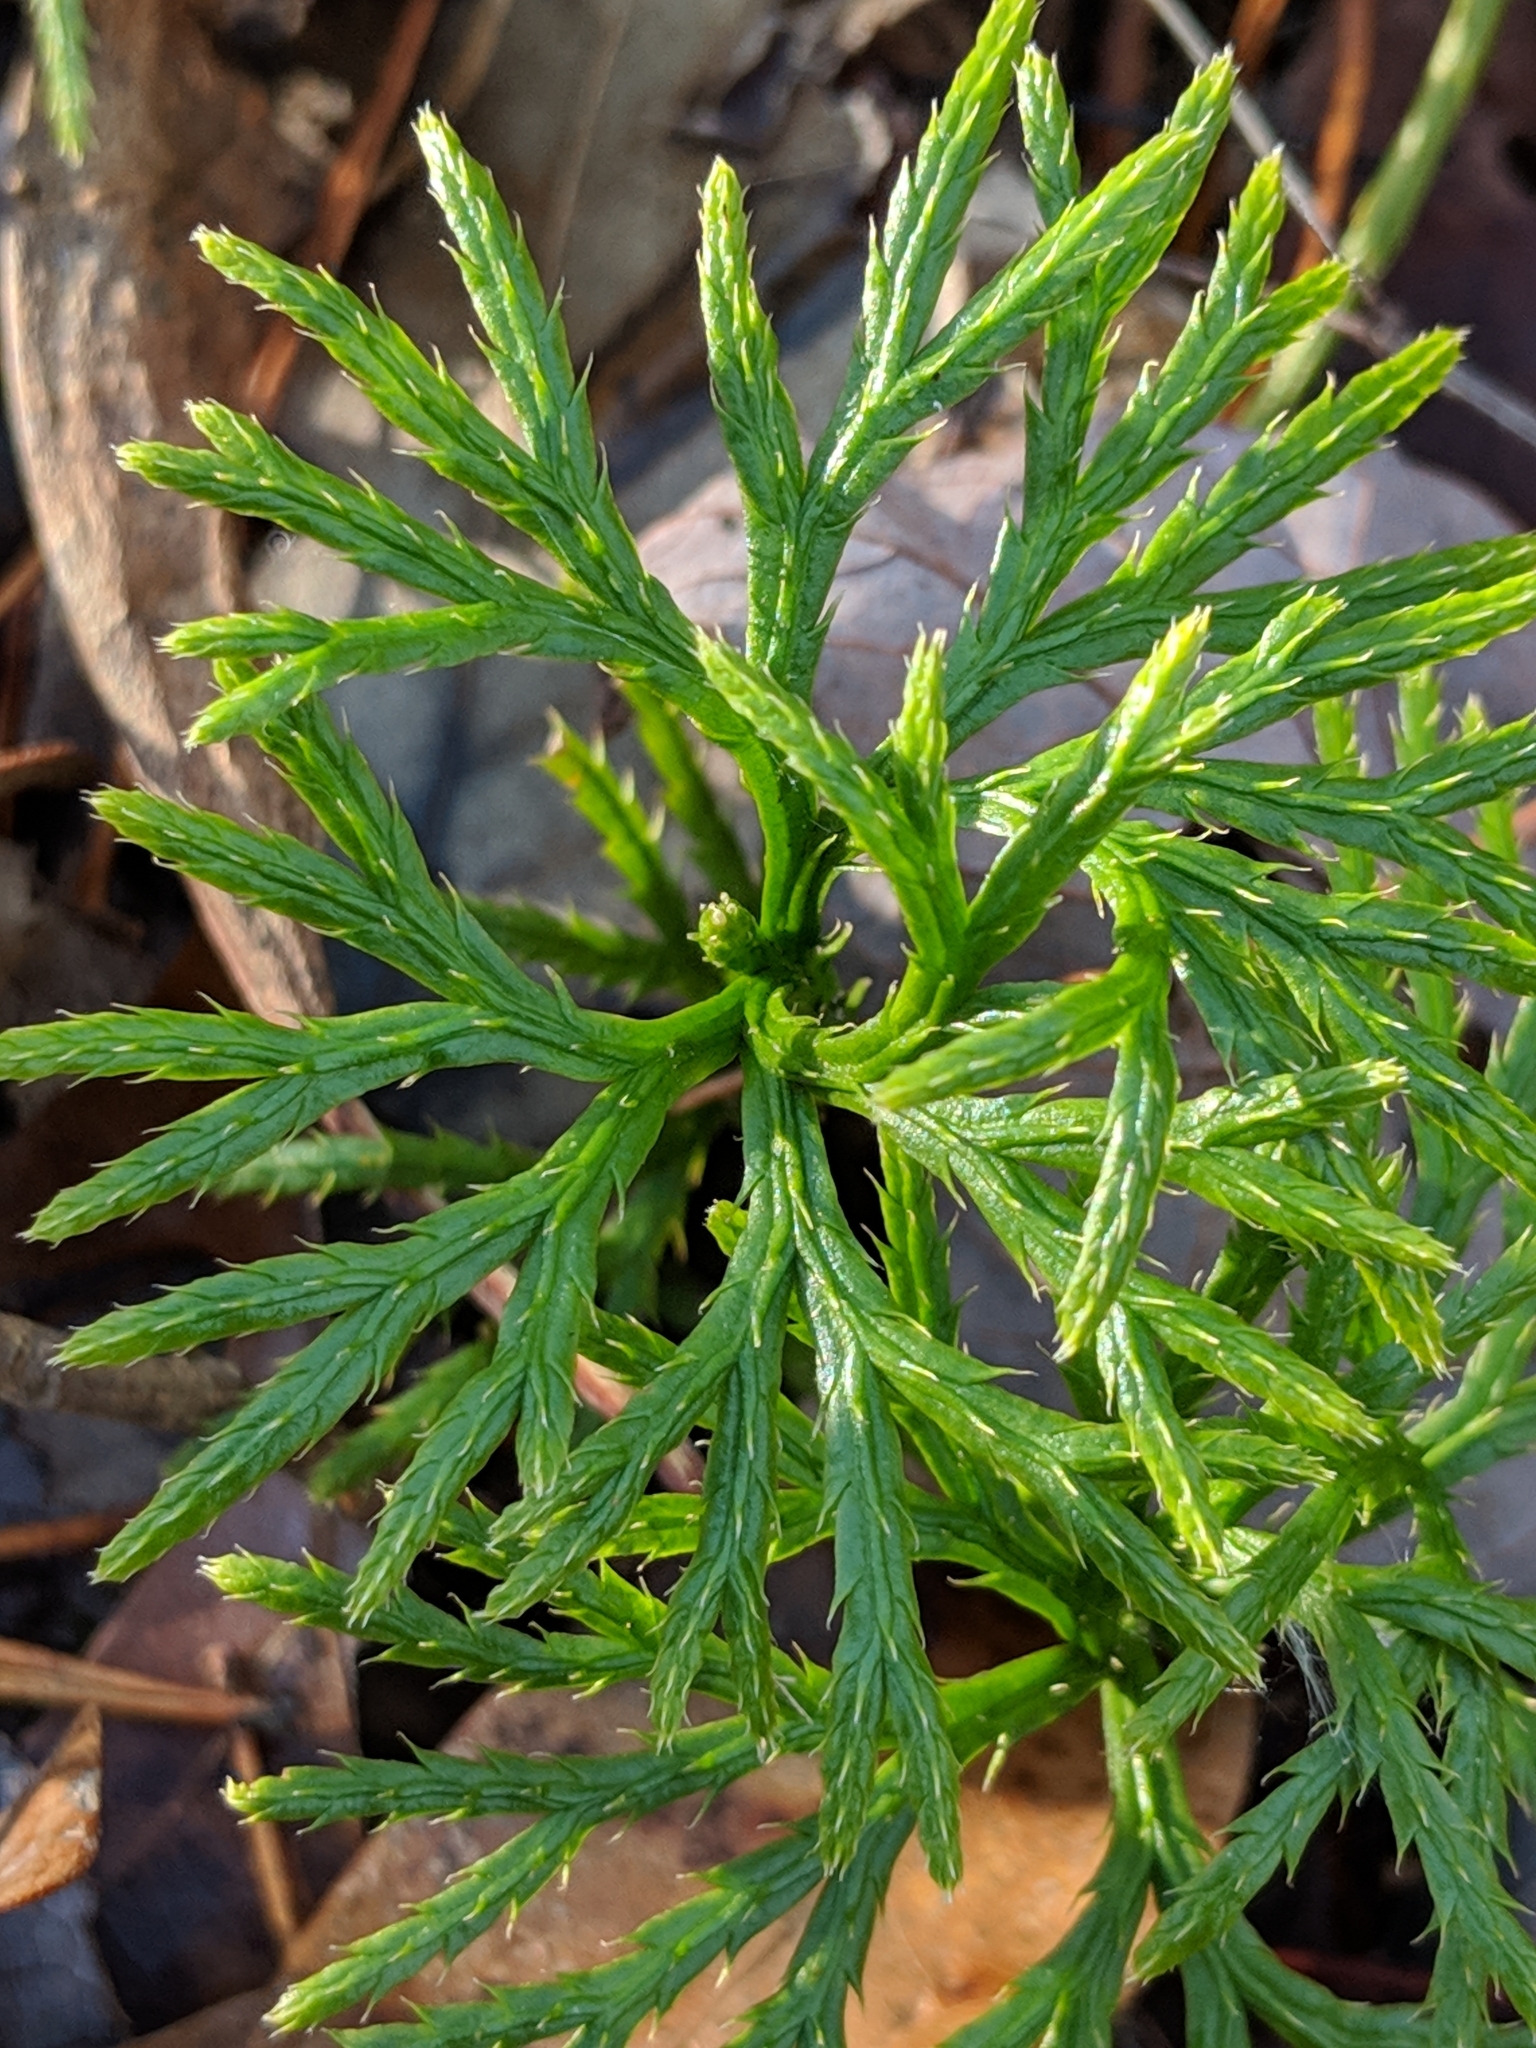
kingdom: Plantae
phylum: Tracheophyta
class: Lycopodiopsida
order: Lycopodiales
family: Lycopodiaceae
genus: Diphasiastrum
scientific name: Diphasiastrum digitatum
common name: Southern running-pine
